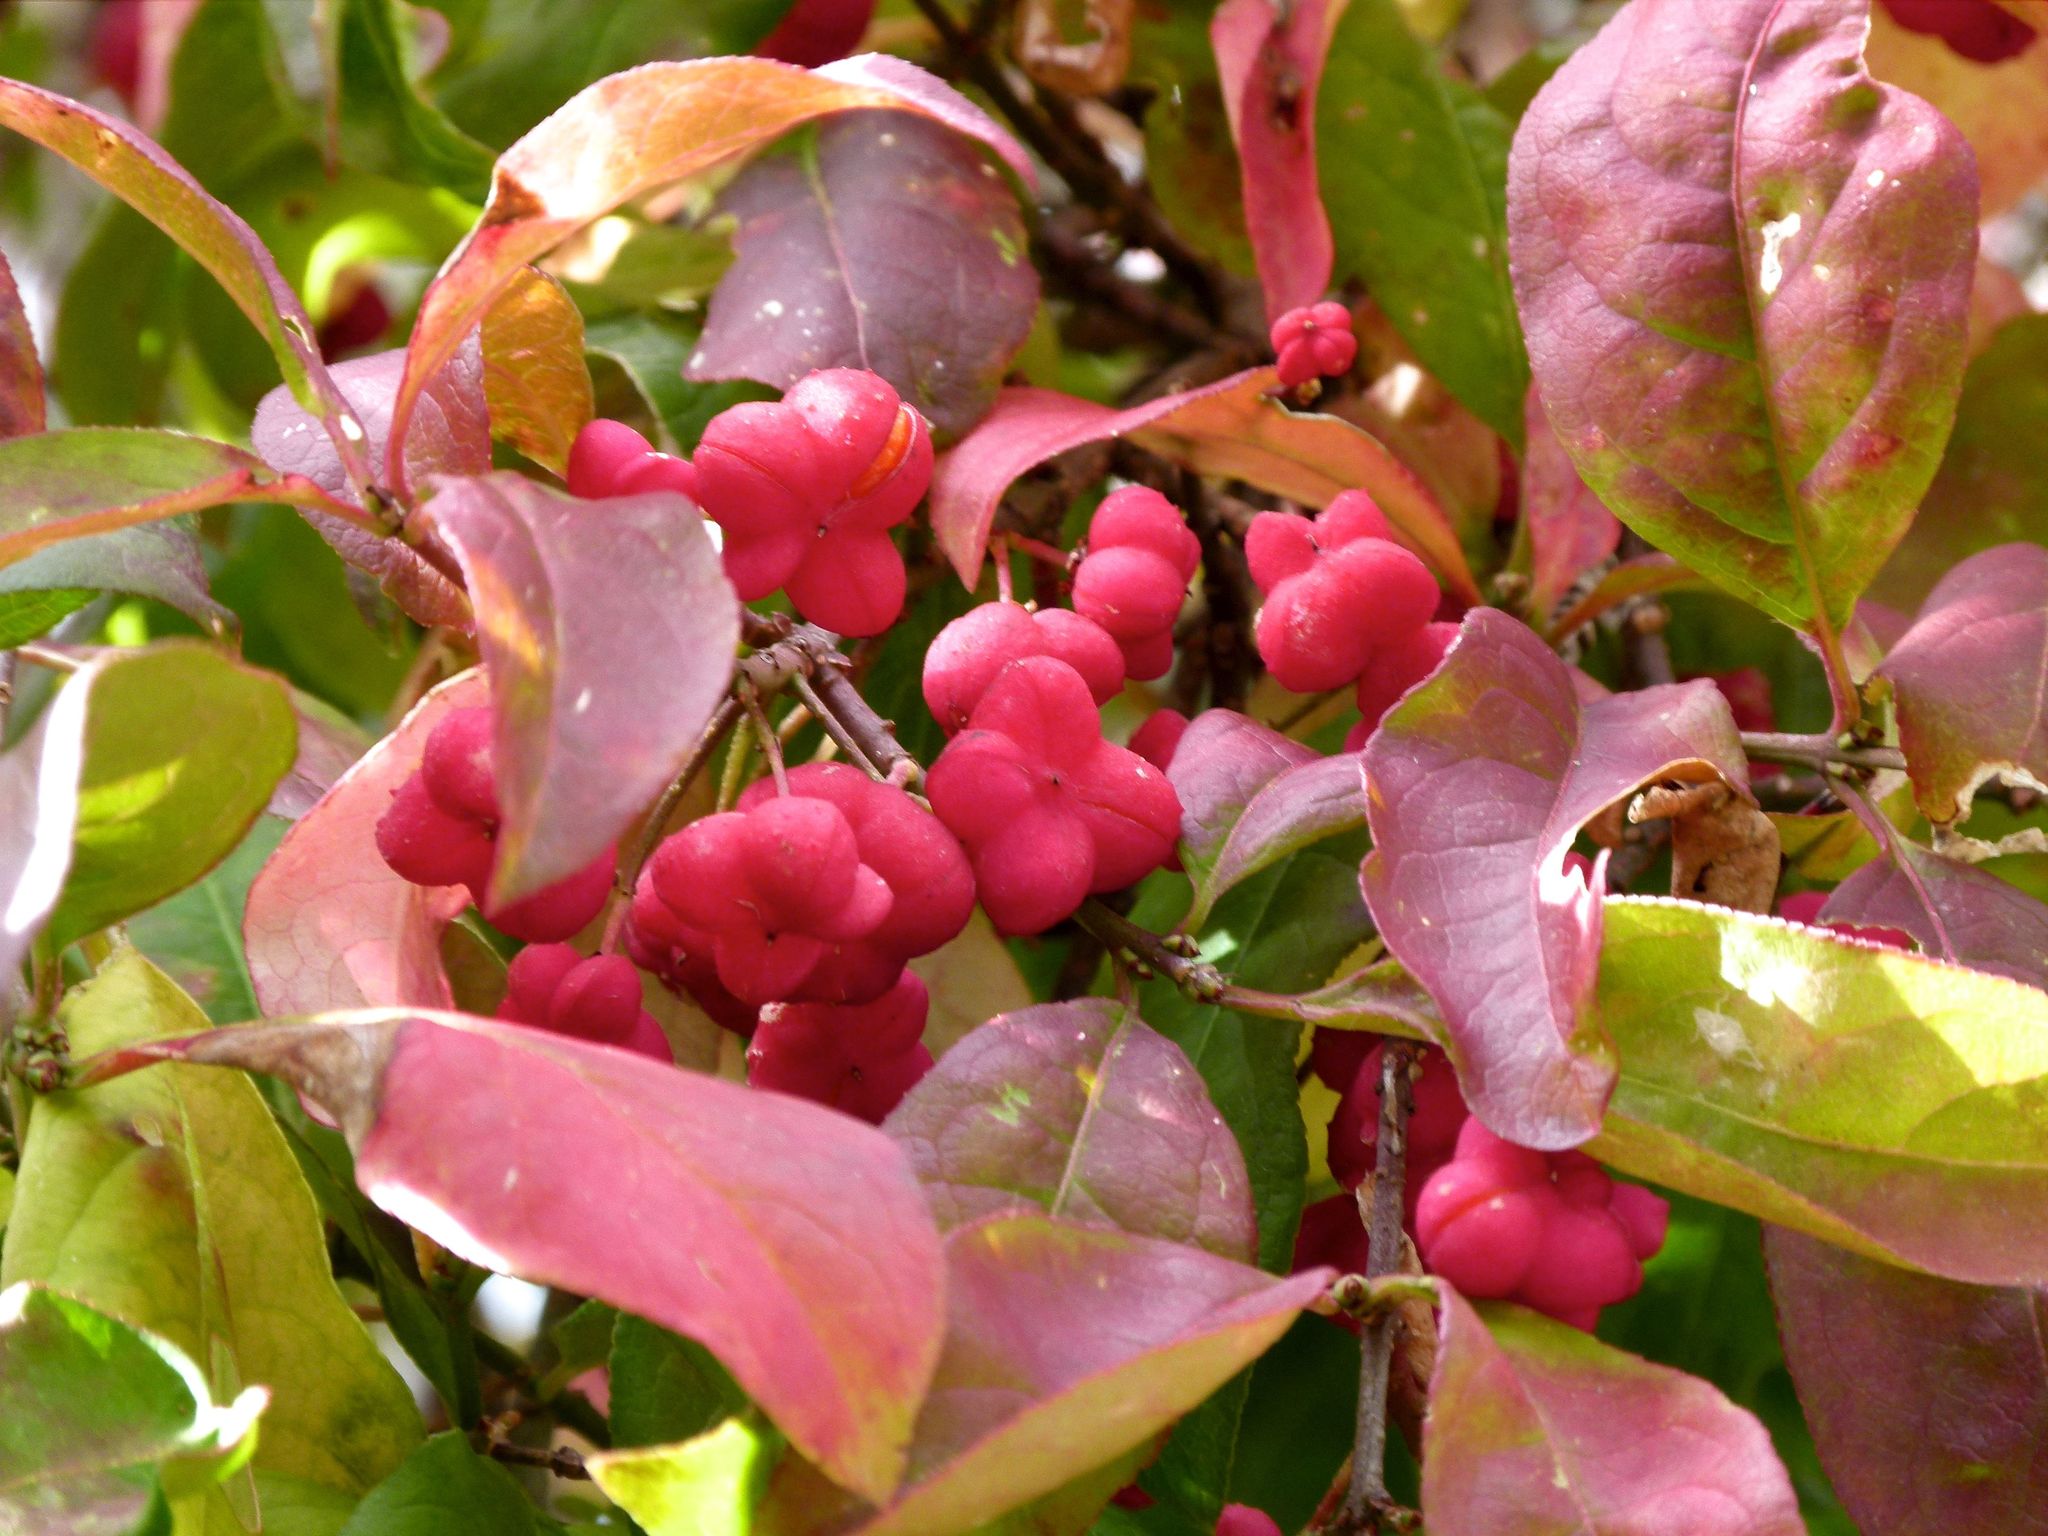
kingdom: Plantae
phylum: Tracheophyta
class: Magnoliopsida
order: Celastrales
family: Celastraceae
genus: Euonymus
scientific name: Euonymus europaeus
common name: Spindle
